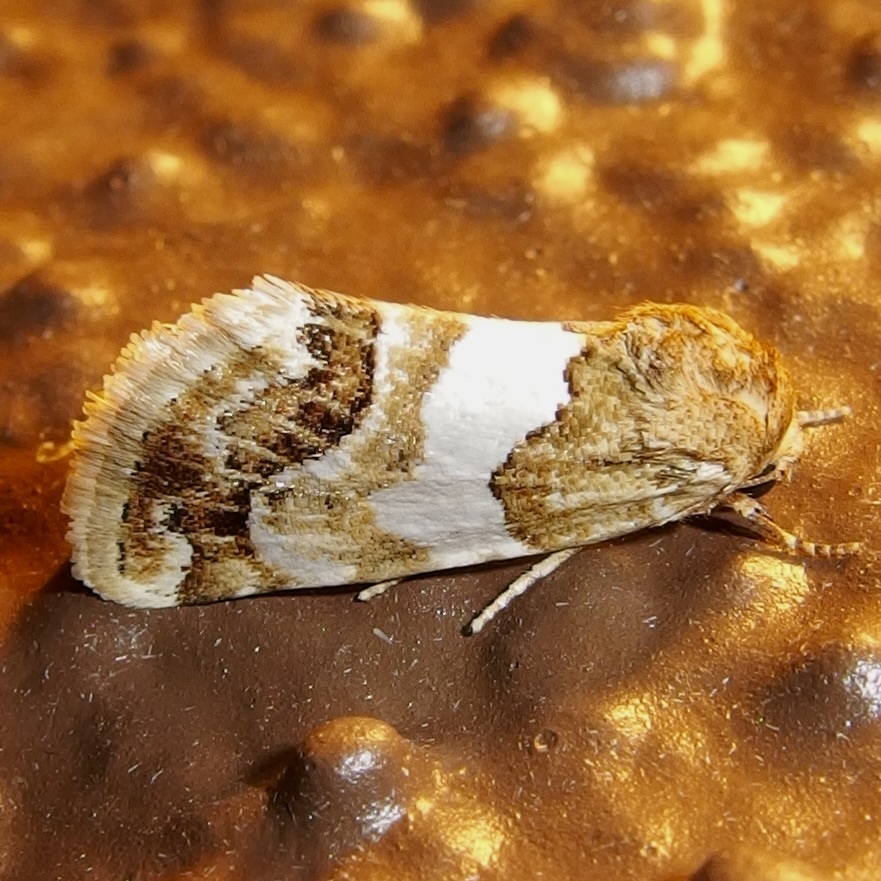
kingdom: Animalia
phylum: Arthropoda
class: Insecta
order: Lepidoptera
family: Noctuidae
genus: Schinia
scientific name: Schinia argentifascia
